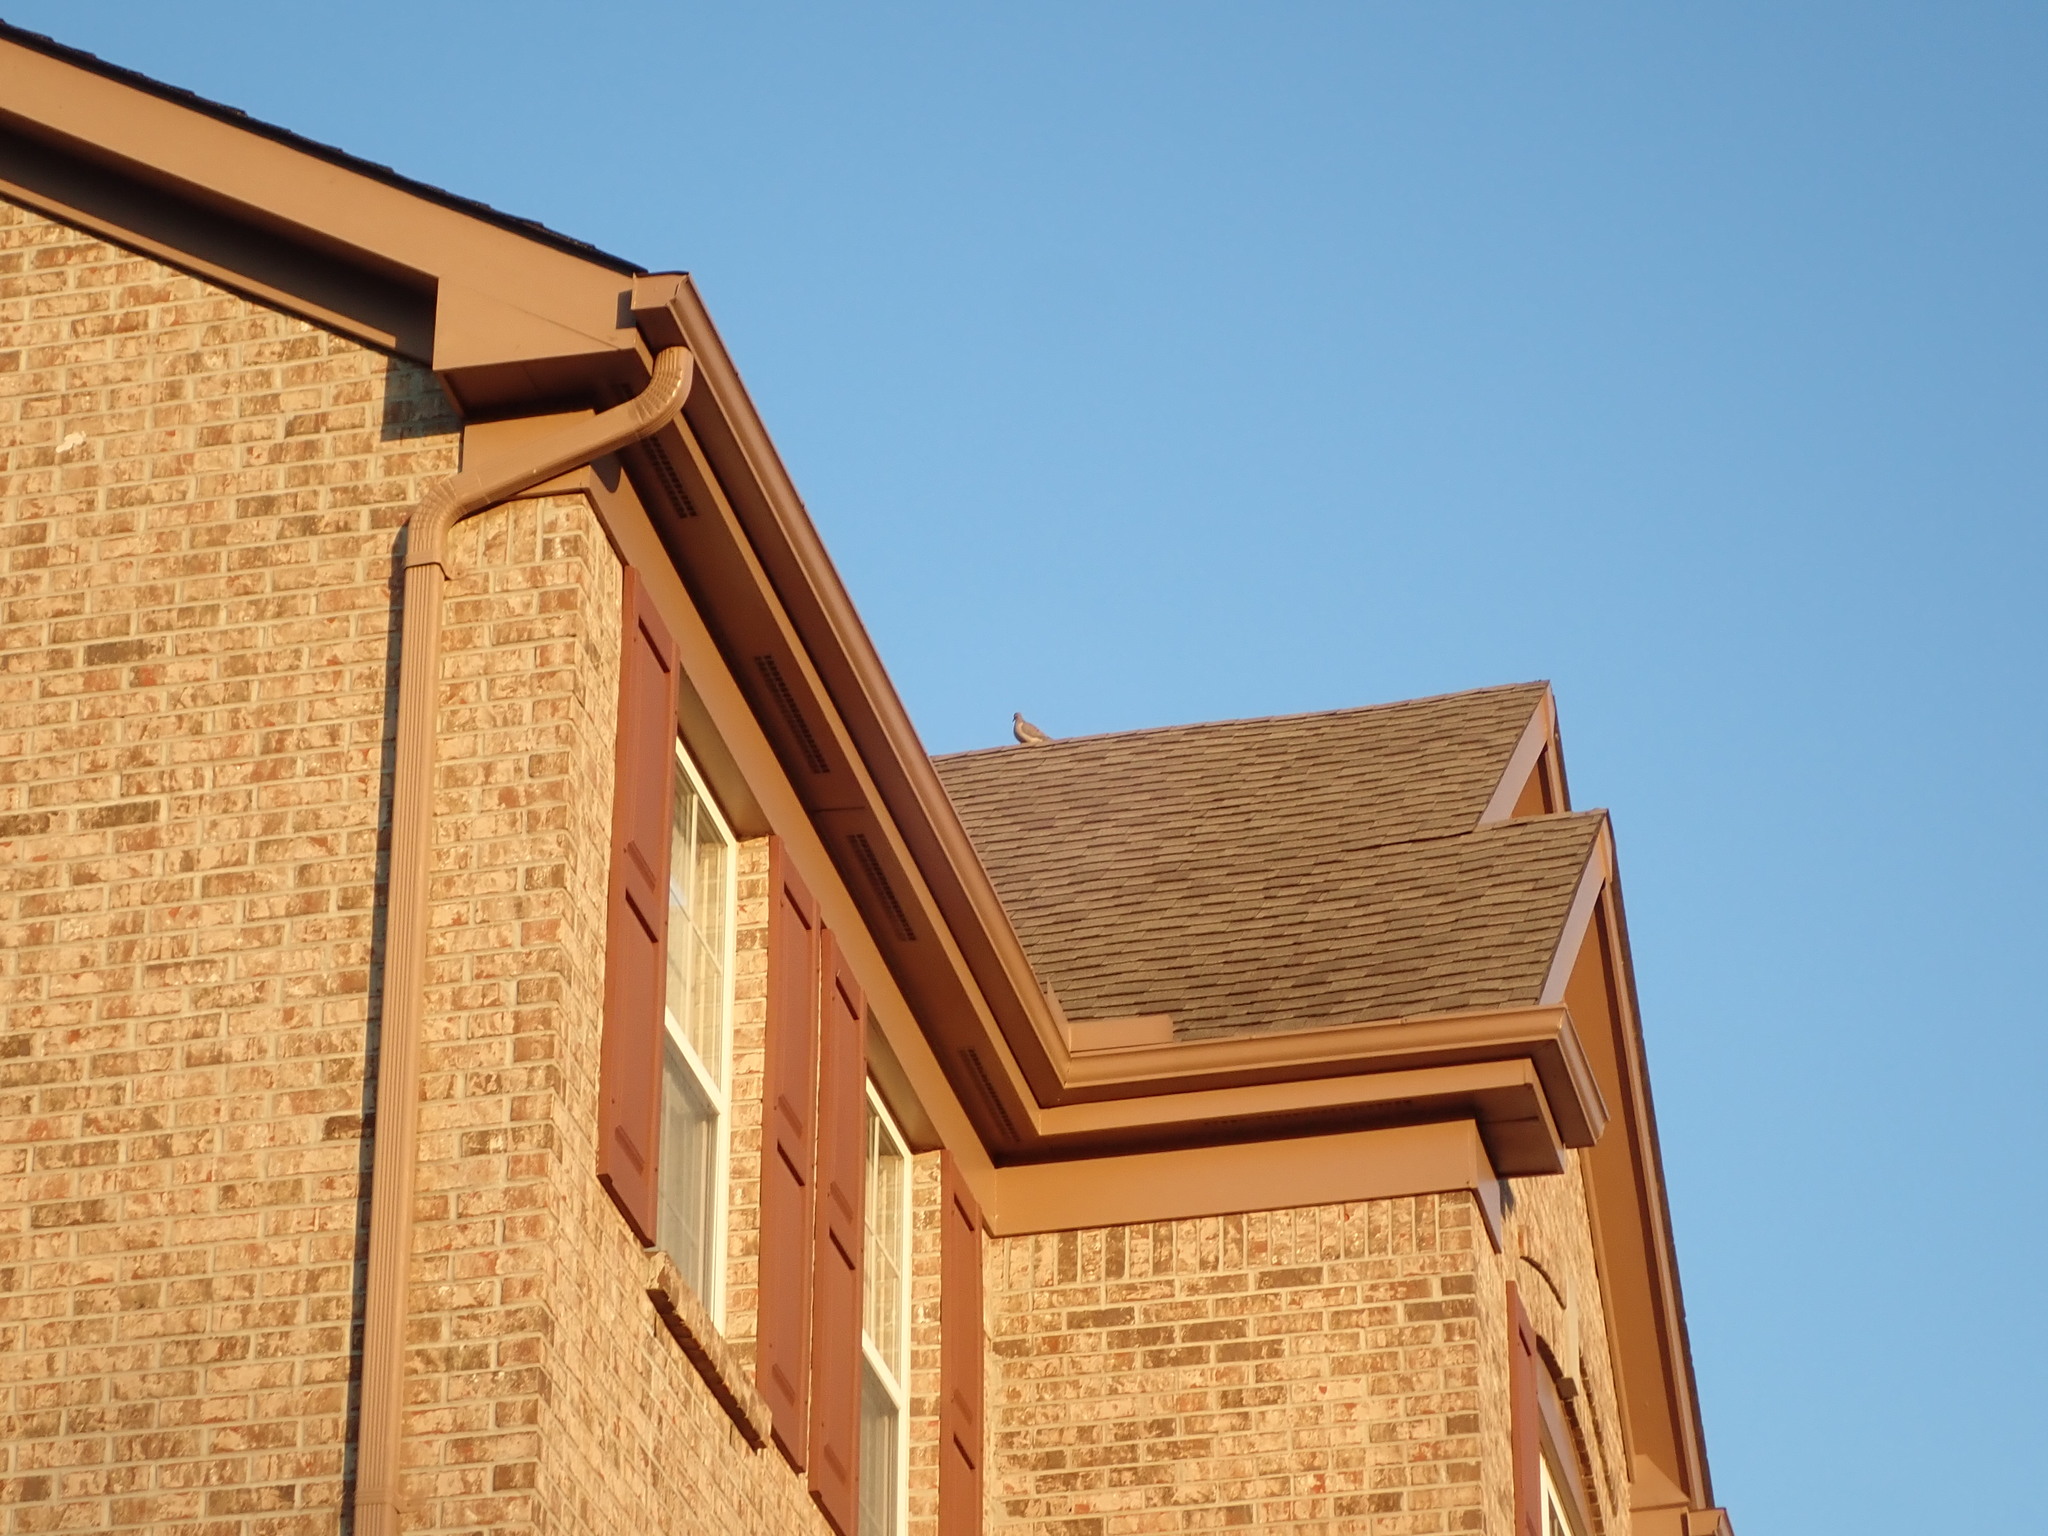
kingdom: Animalia
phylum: Chordata
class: Aves
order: Columbiformes
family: Columbidae
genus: Zenaida
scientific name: Zenaida macroura
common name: Mourning dove
